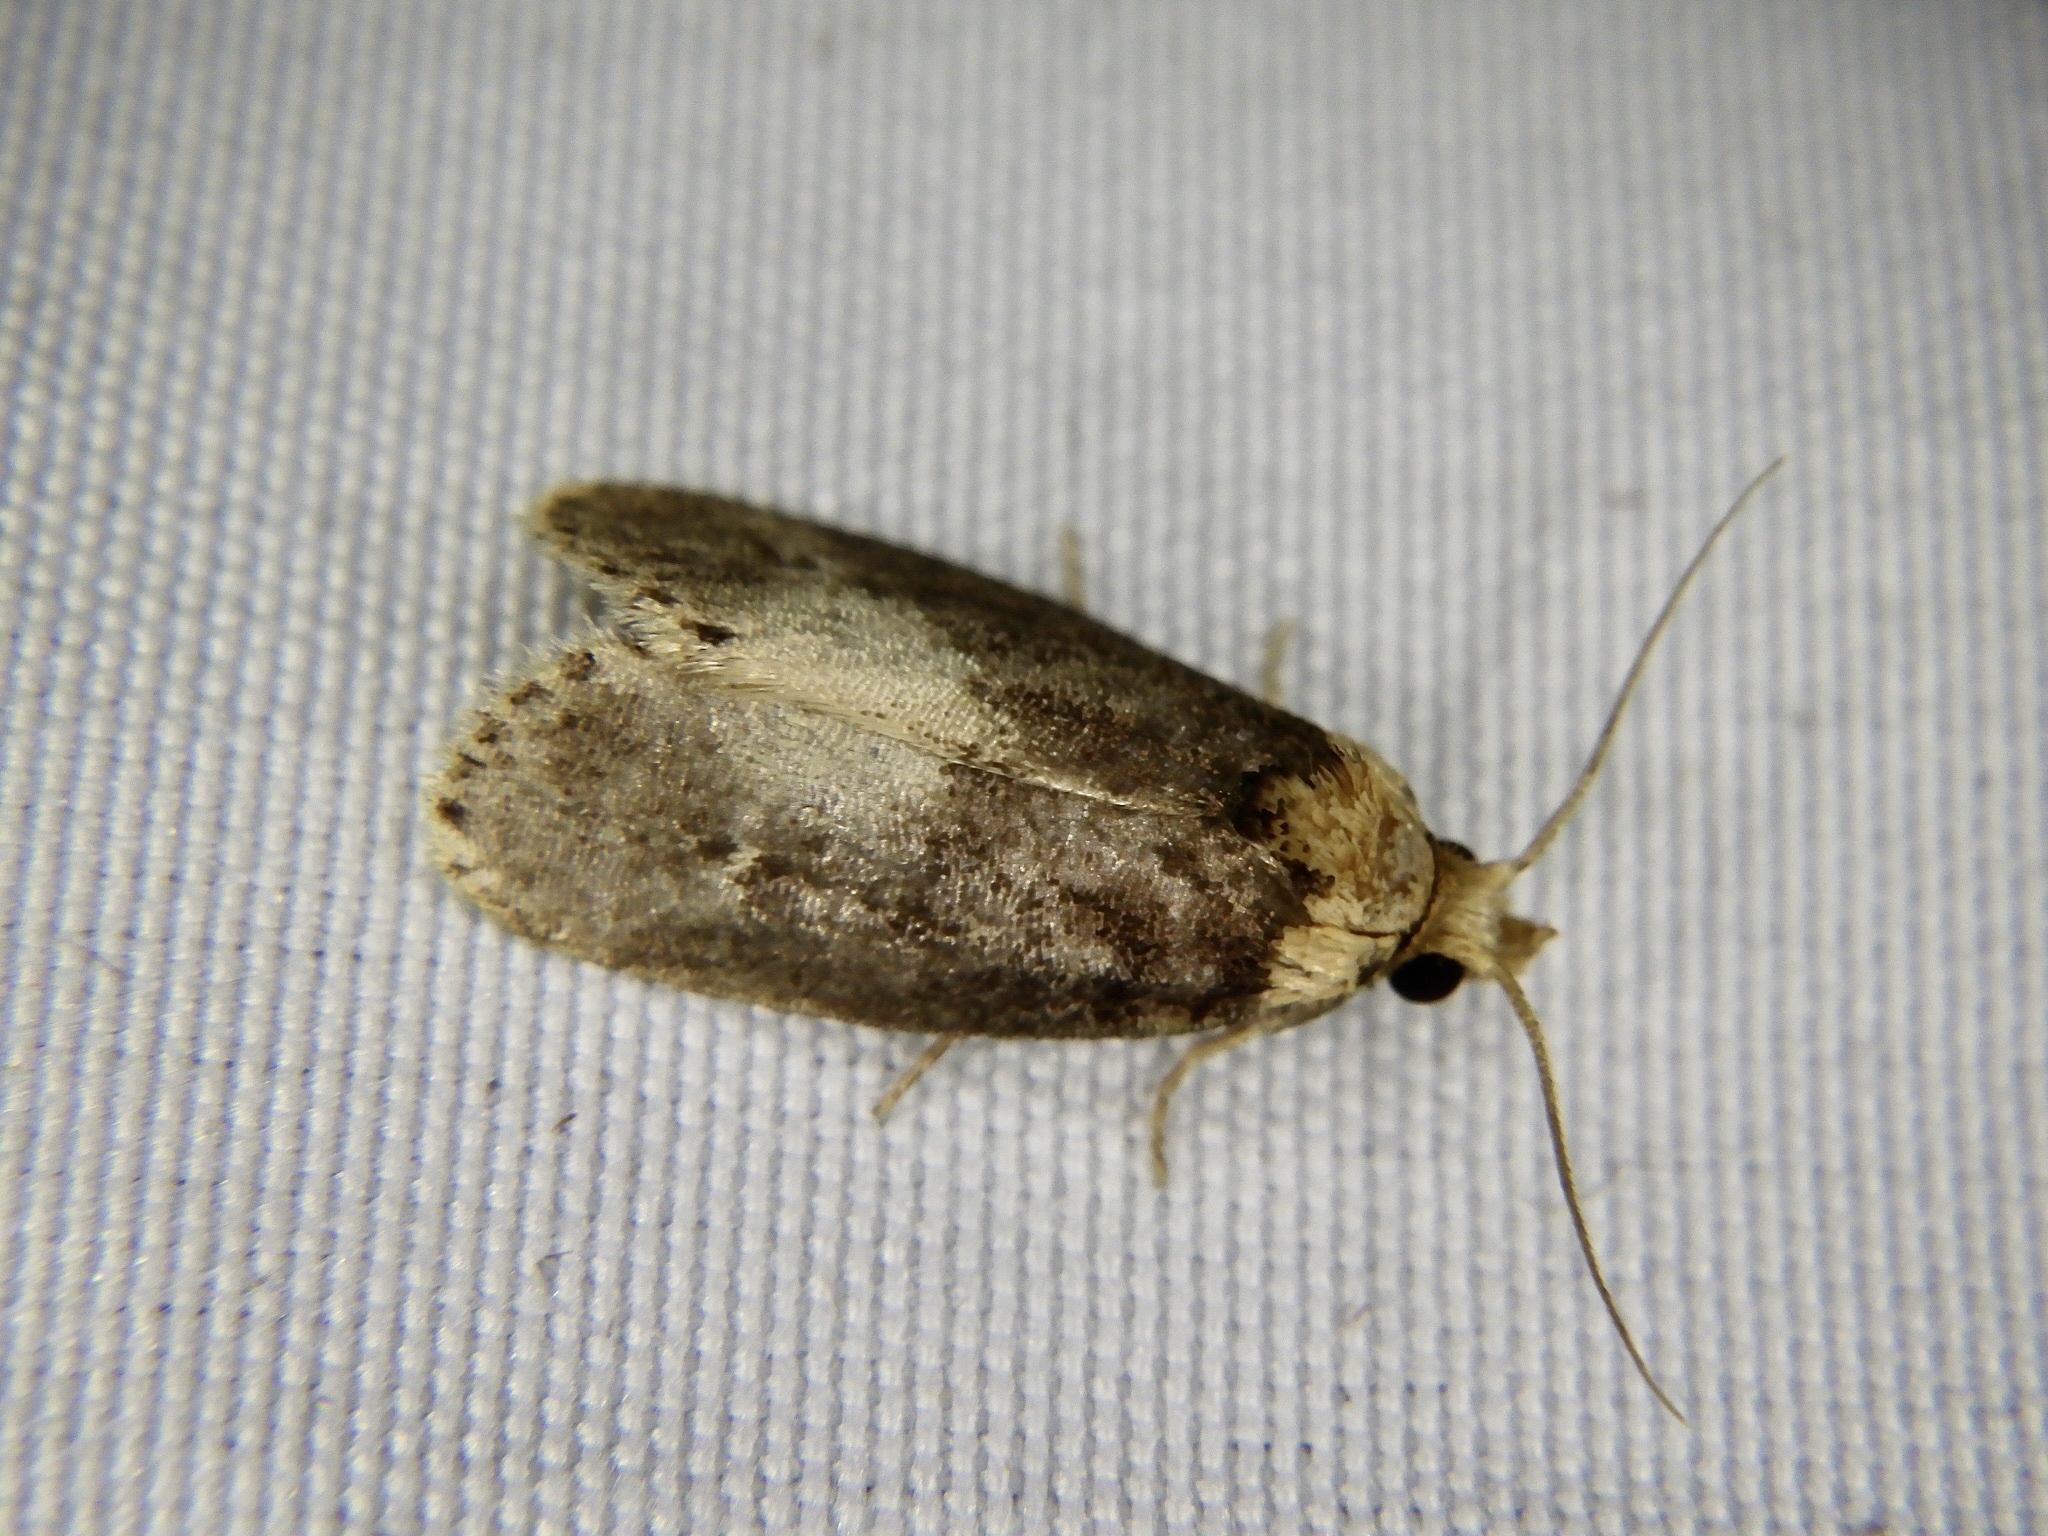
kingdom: Animalia
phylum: Arthropoda
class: Insecta
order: Lepidoptera
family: Limacodidae
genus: Naryciodes
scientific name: Naryciodes posticalis
